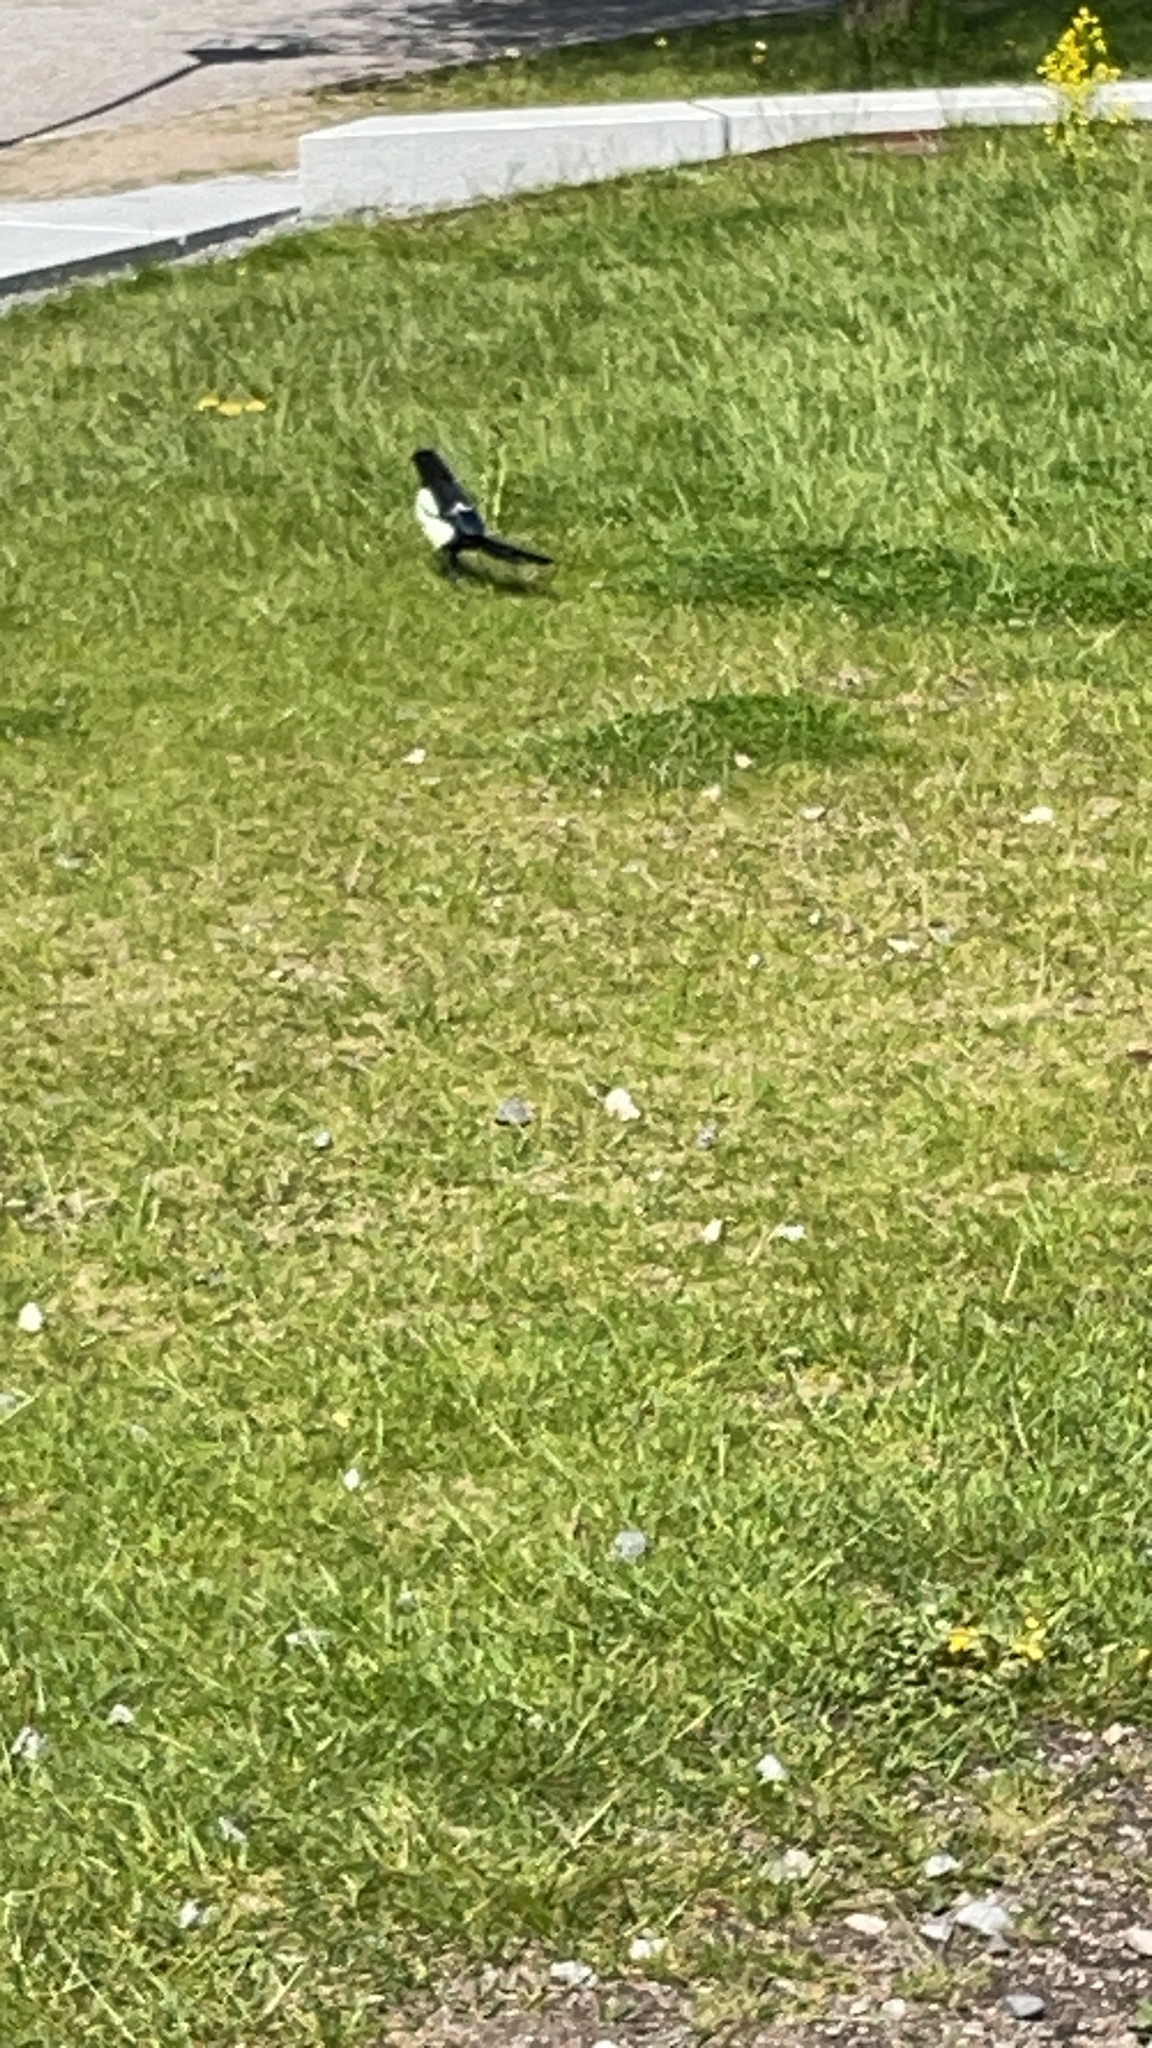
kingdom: Animalia
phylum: Chordata
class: Aves
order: Passeriformes
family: Corvidae
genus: Pica
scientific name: Pica pica
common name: Eurasian magpie
